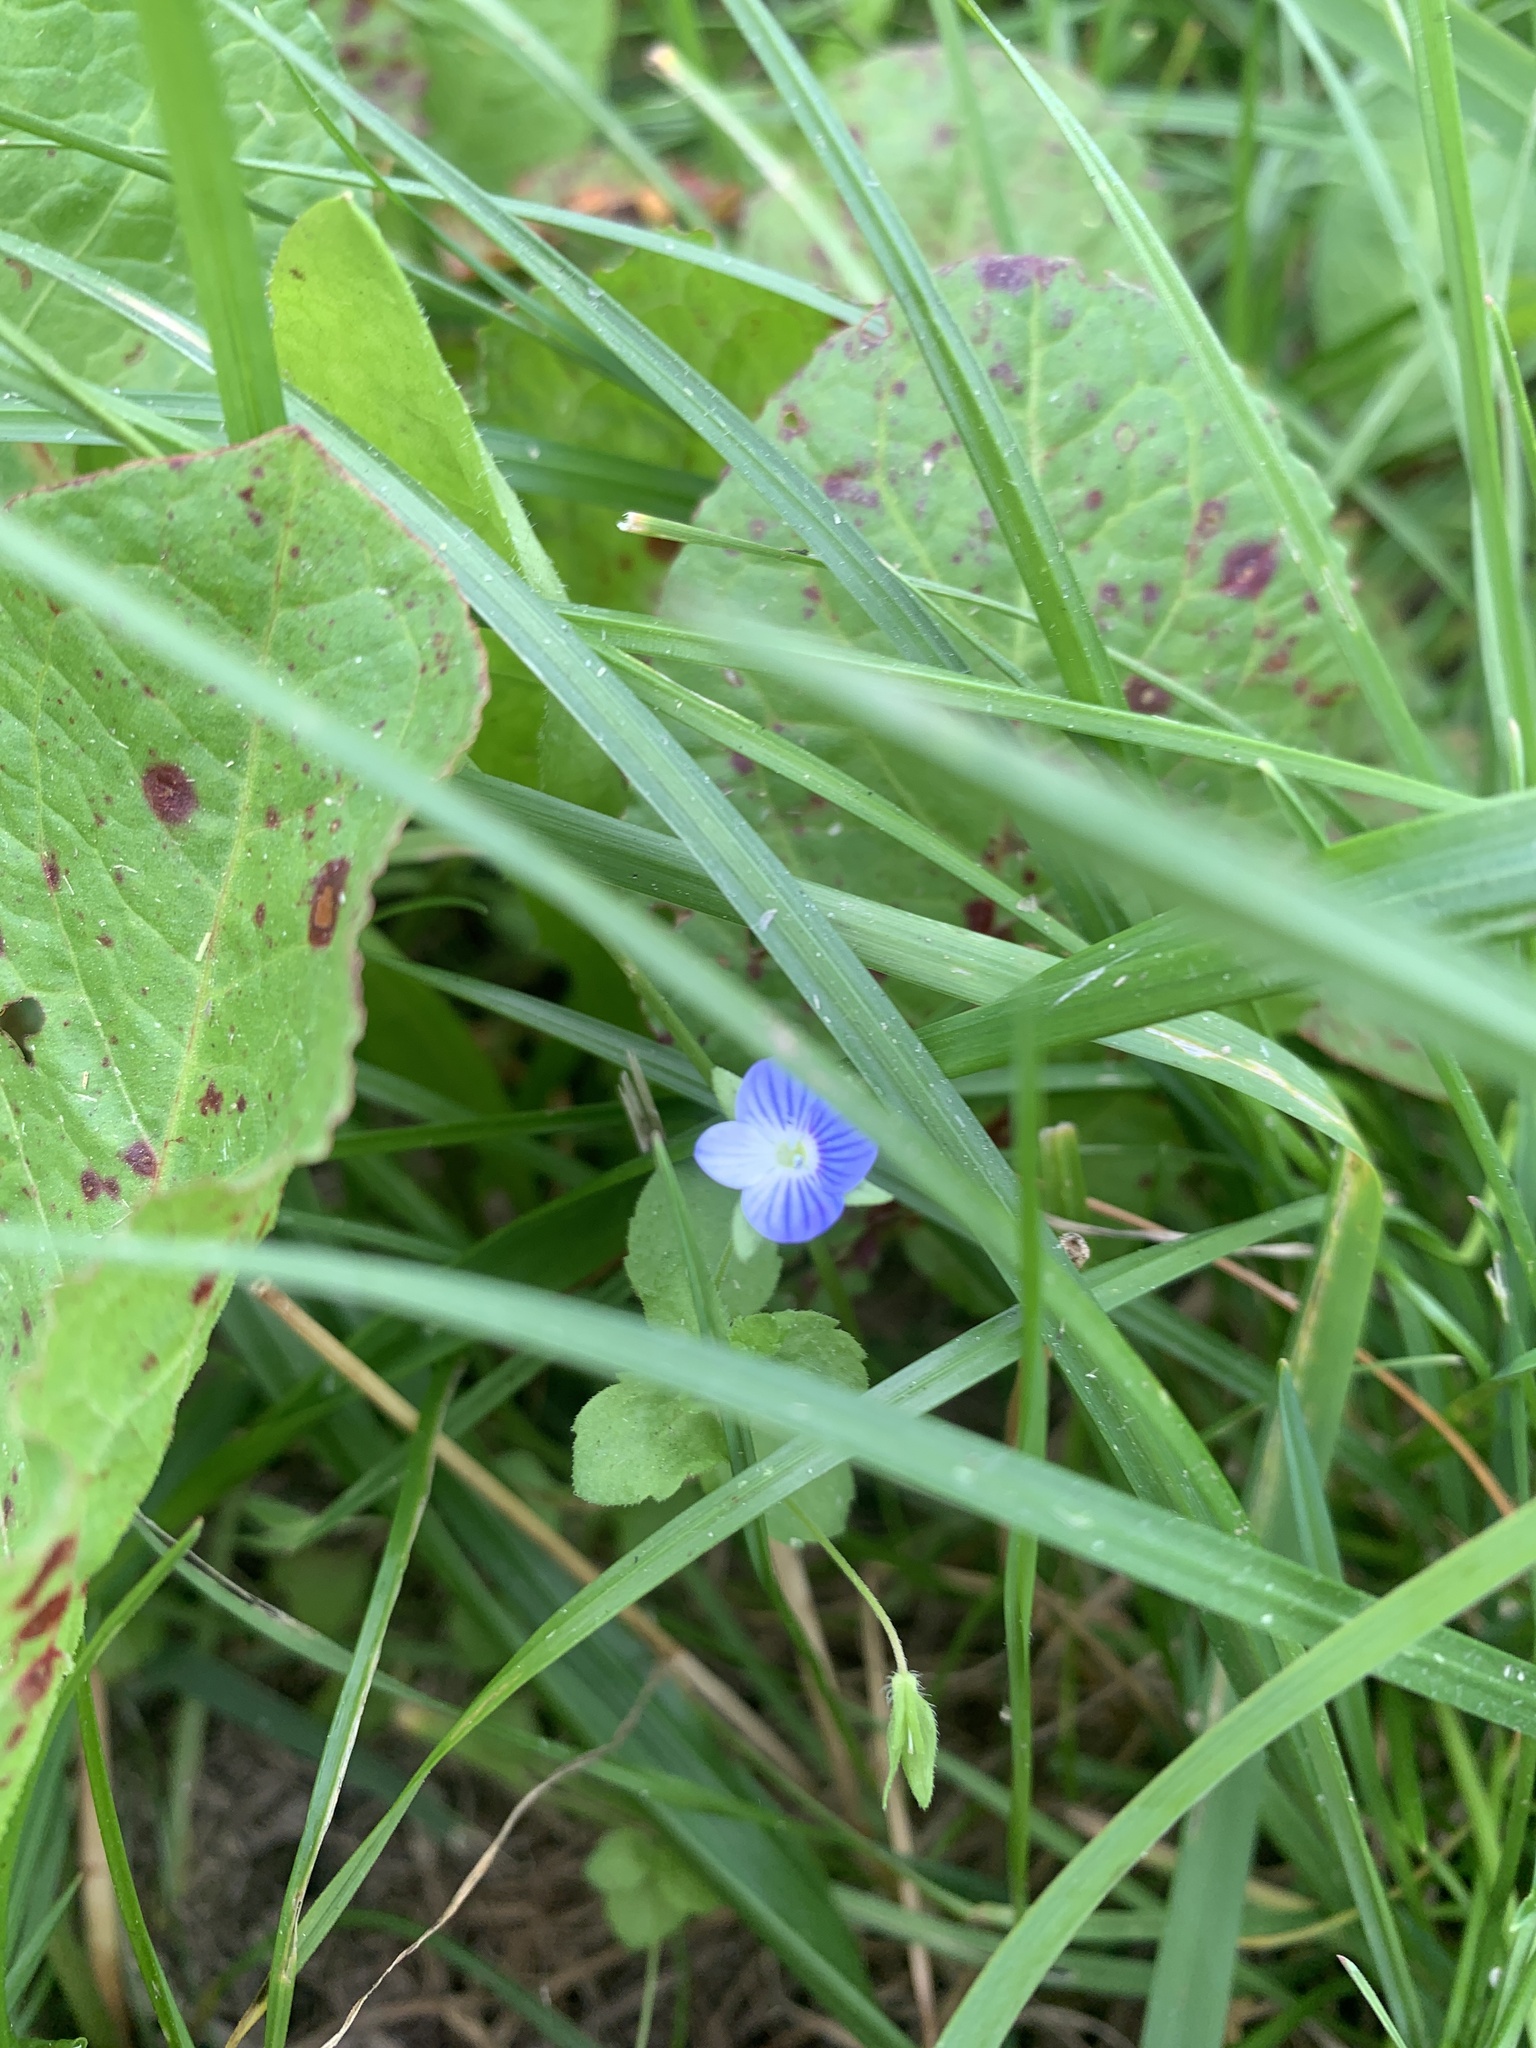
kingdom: Plantae
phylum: Tracheophyta
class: Magnoliopsida
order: Lamiales
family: Plantaginaceae
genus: Veronica
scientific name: Veronica persica
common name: Common field-speedwell
